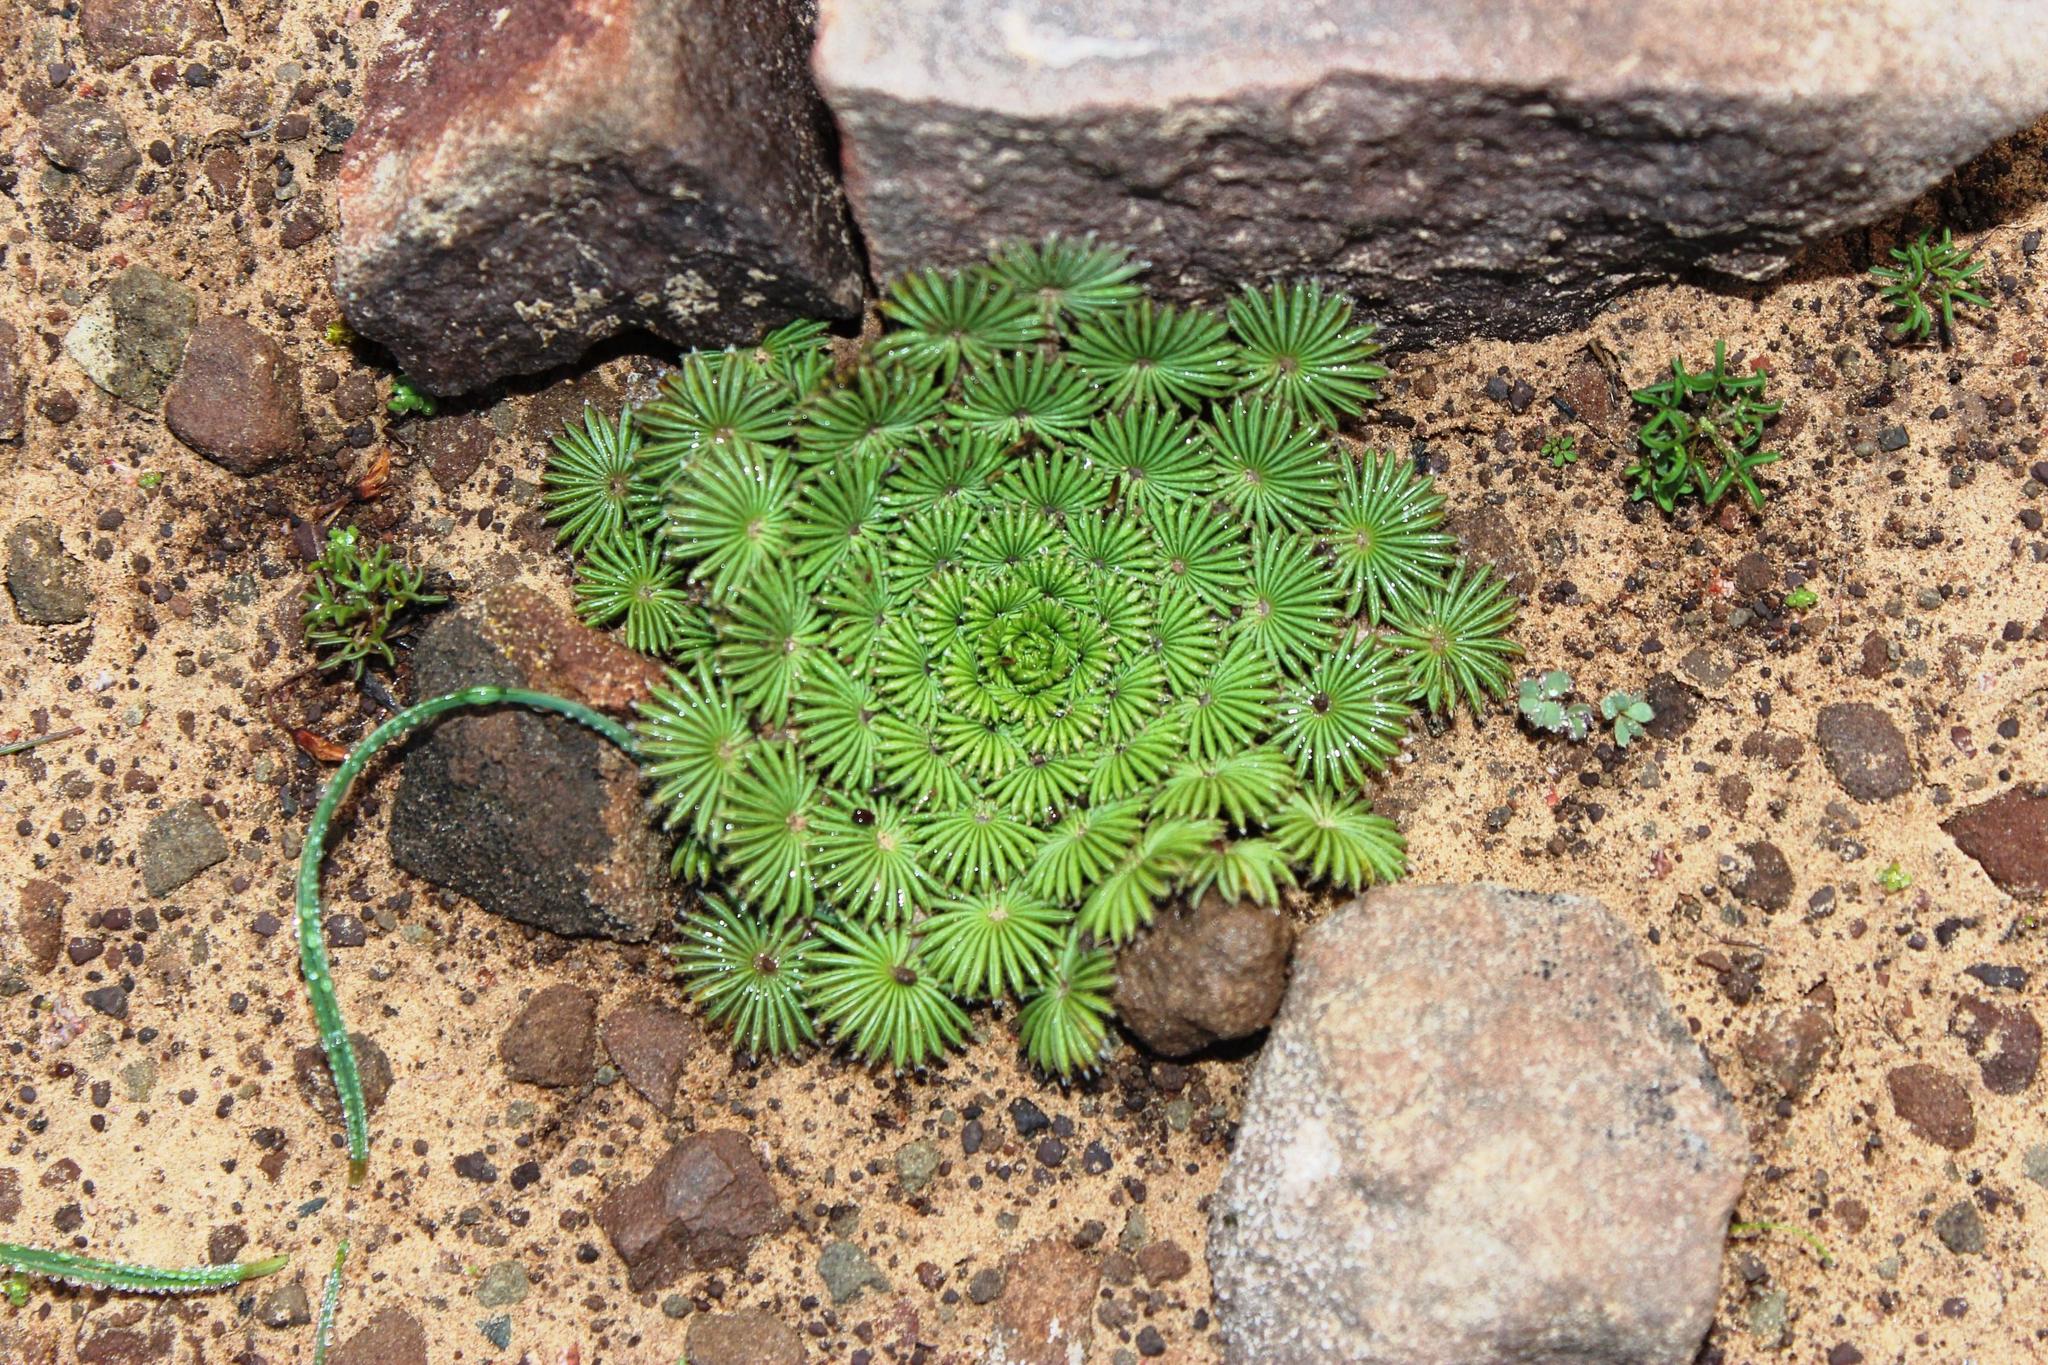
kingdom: Plantae
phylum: Tracheophyta
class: Magnoliopsida
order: Oxalidales
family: Oxalidaceae
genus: Oxalis
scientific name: Oxalis palmifrons
